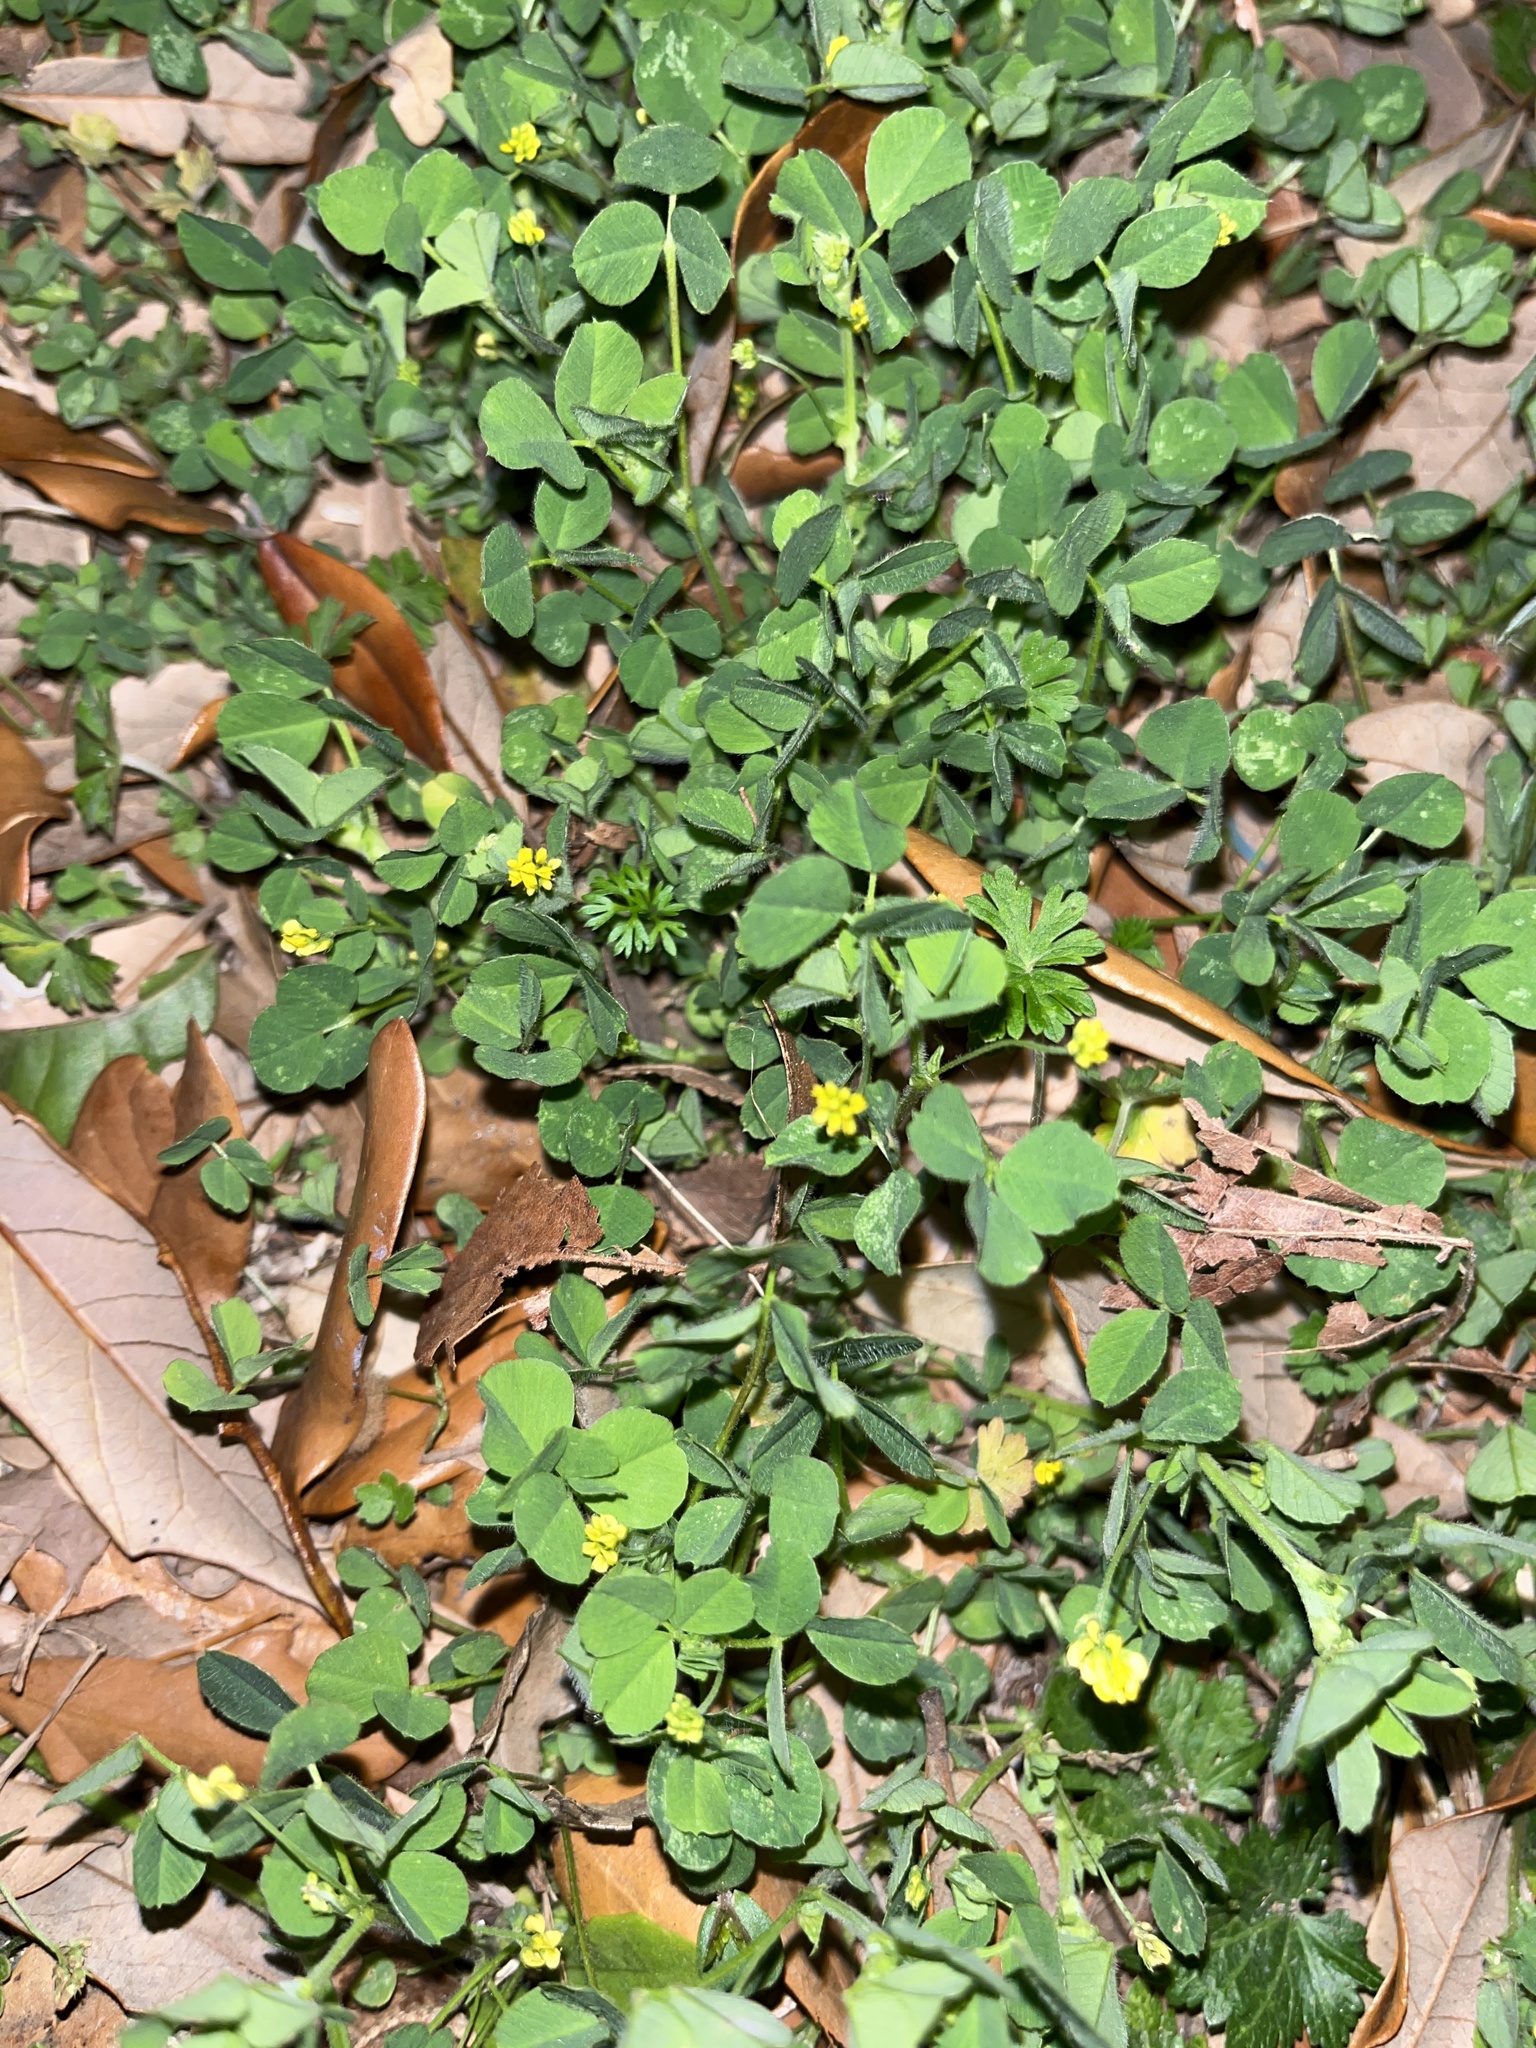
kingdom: Plantae
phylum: Tracheophyta
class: Magnoliopsida
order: Fabales
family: Fabaceae
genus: Medicago
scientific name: Medicago lupulina
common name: Black medick
